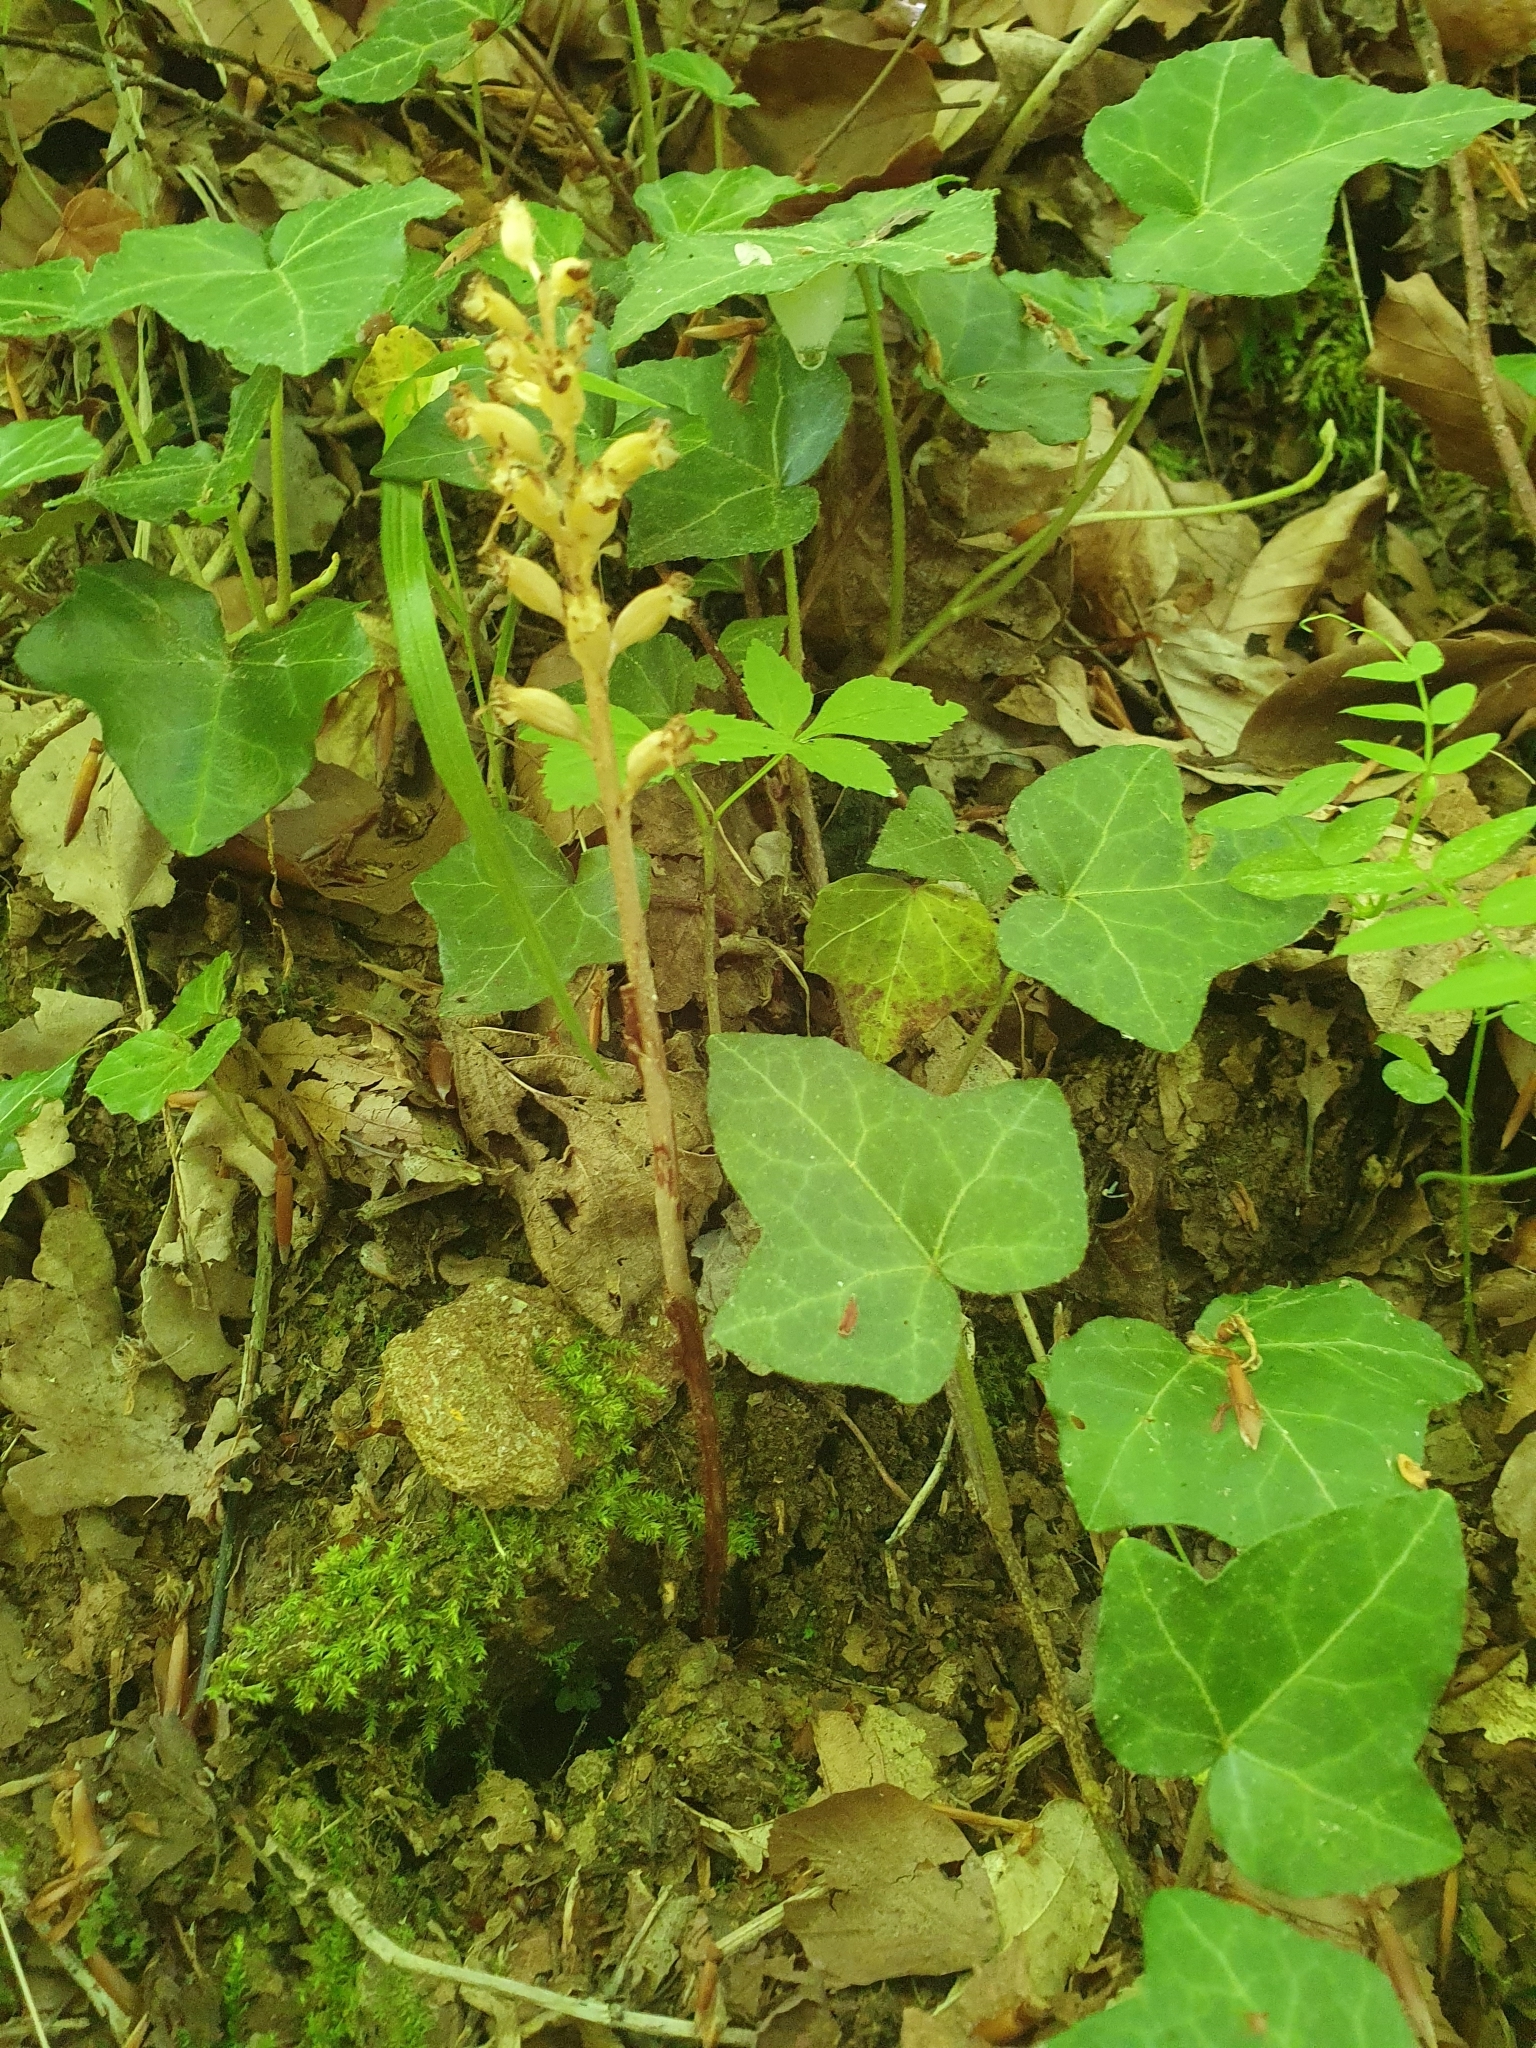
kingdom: Plantae
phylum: Tracheophyta
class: Liliopsida
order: Asparagales
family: Orchidaceae
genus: Neottia
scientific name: Neottia nidus-avis
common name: Bird's-nest orchid
